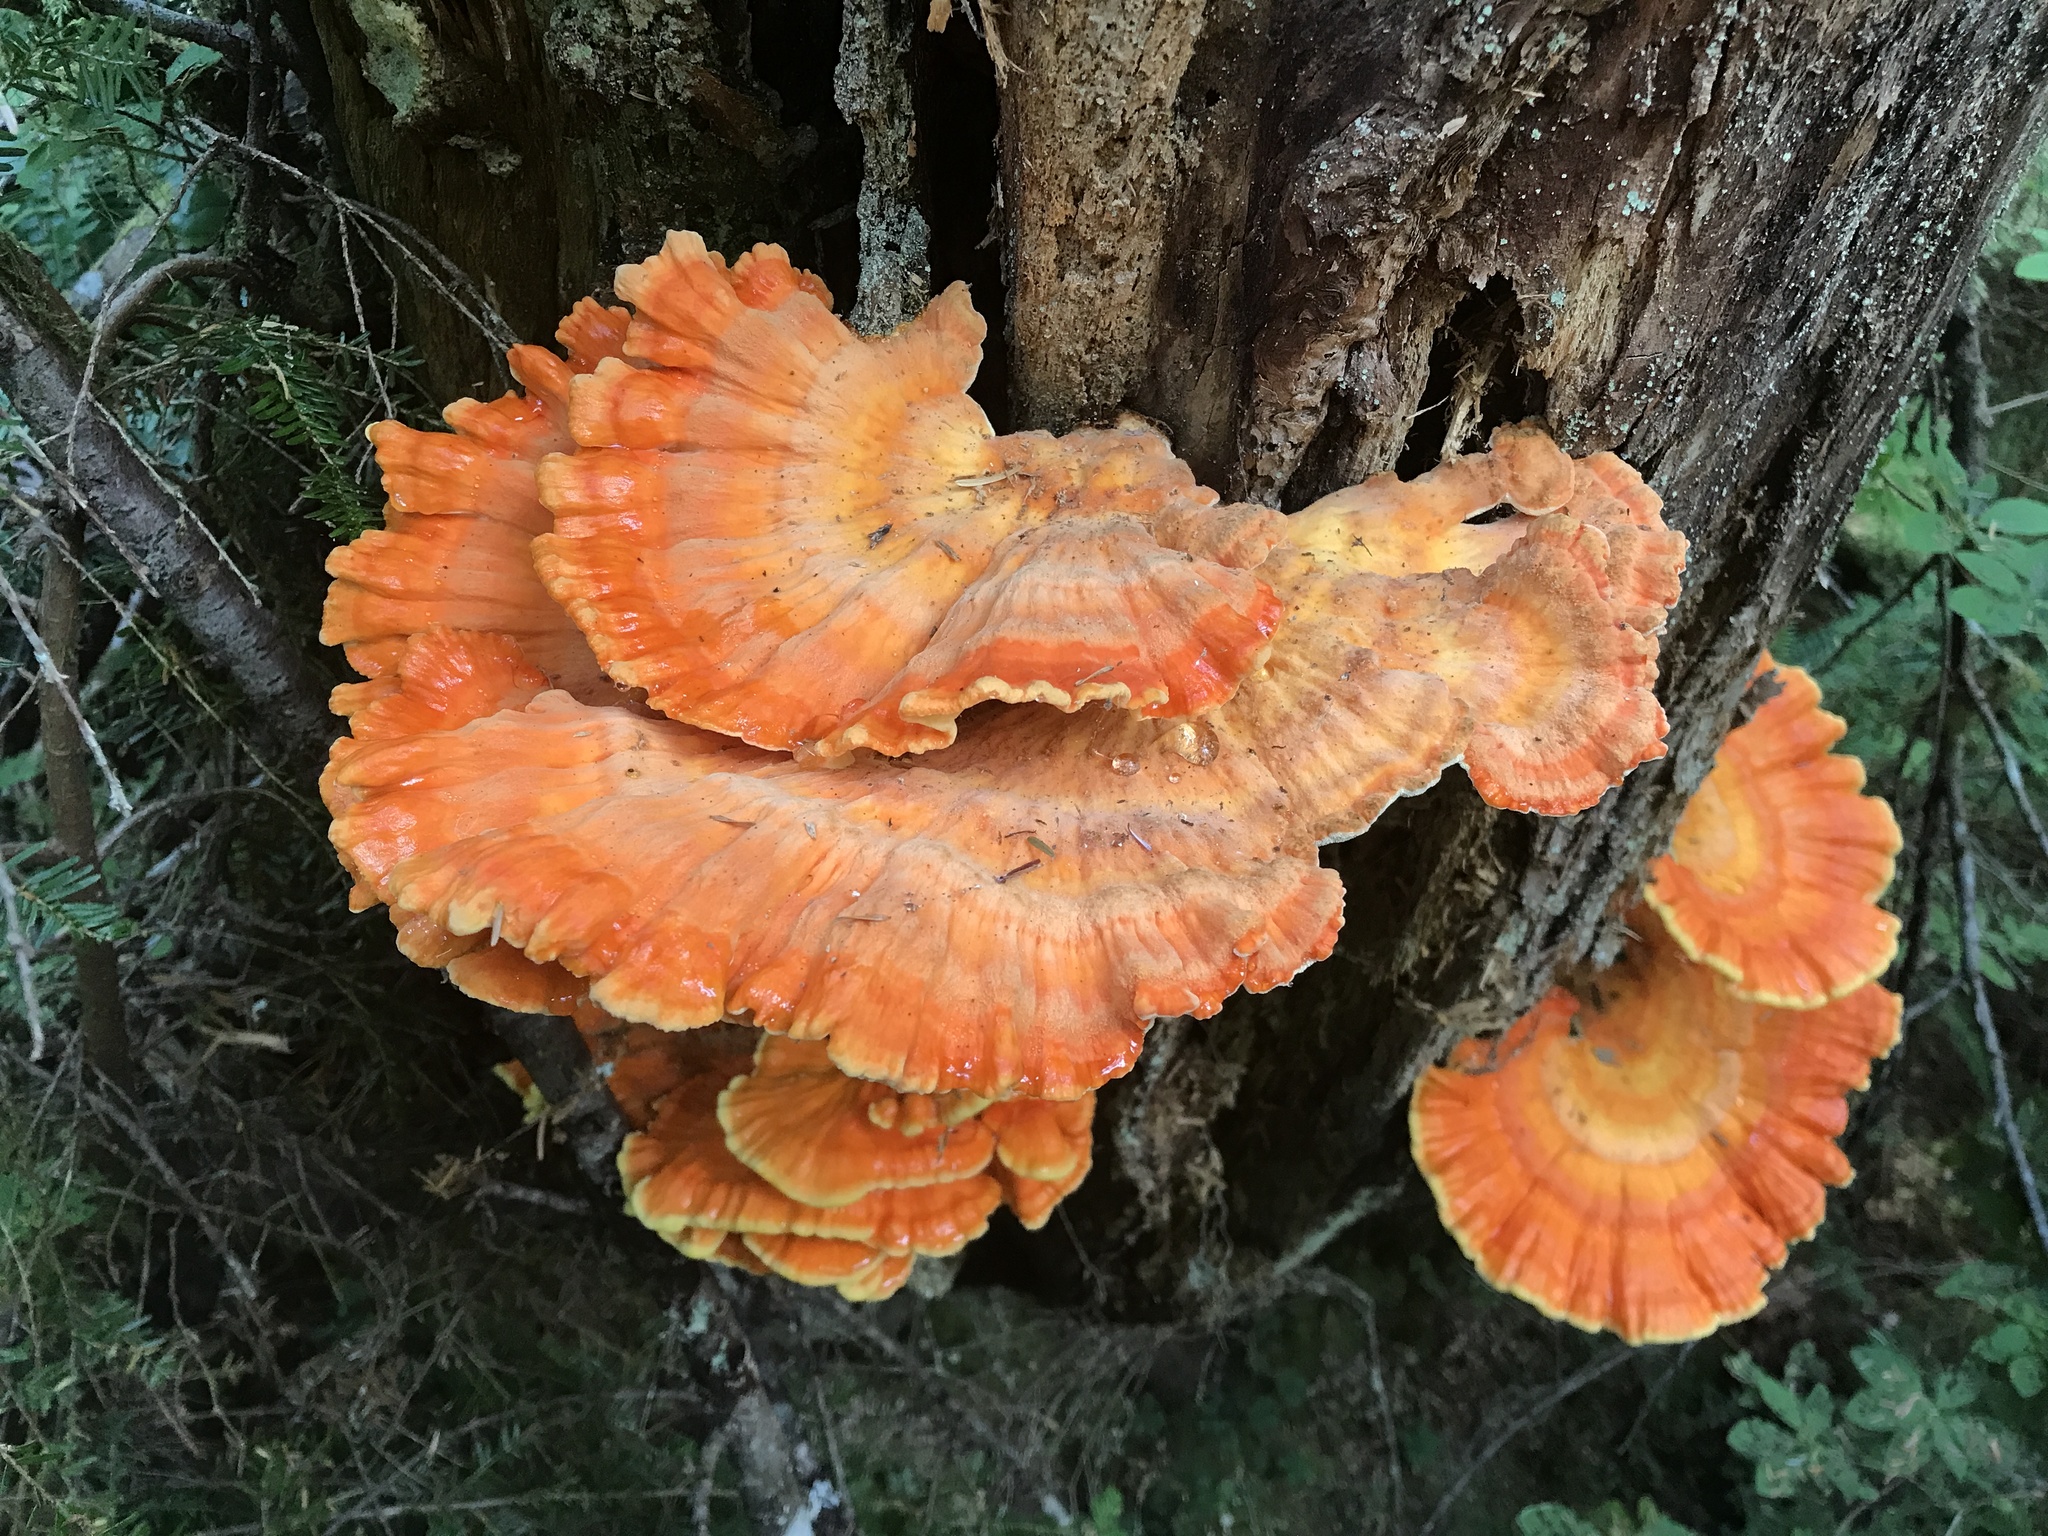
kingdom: Fungi
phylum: Basidiomycota
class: Agaricomycetes
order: Polyporales
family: Laetiporaceae
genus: Laetiporus
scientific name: Laetiporus conifericola
